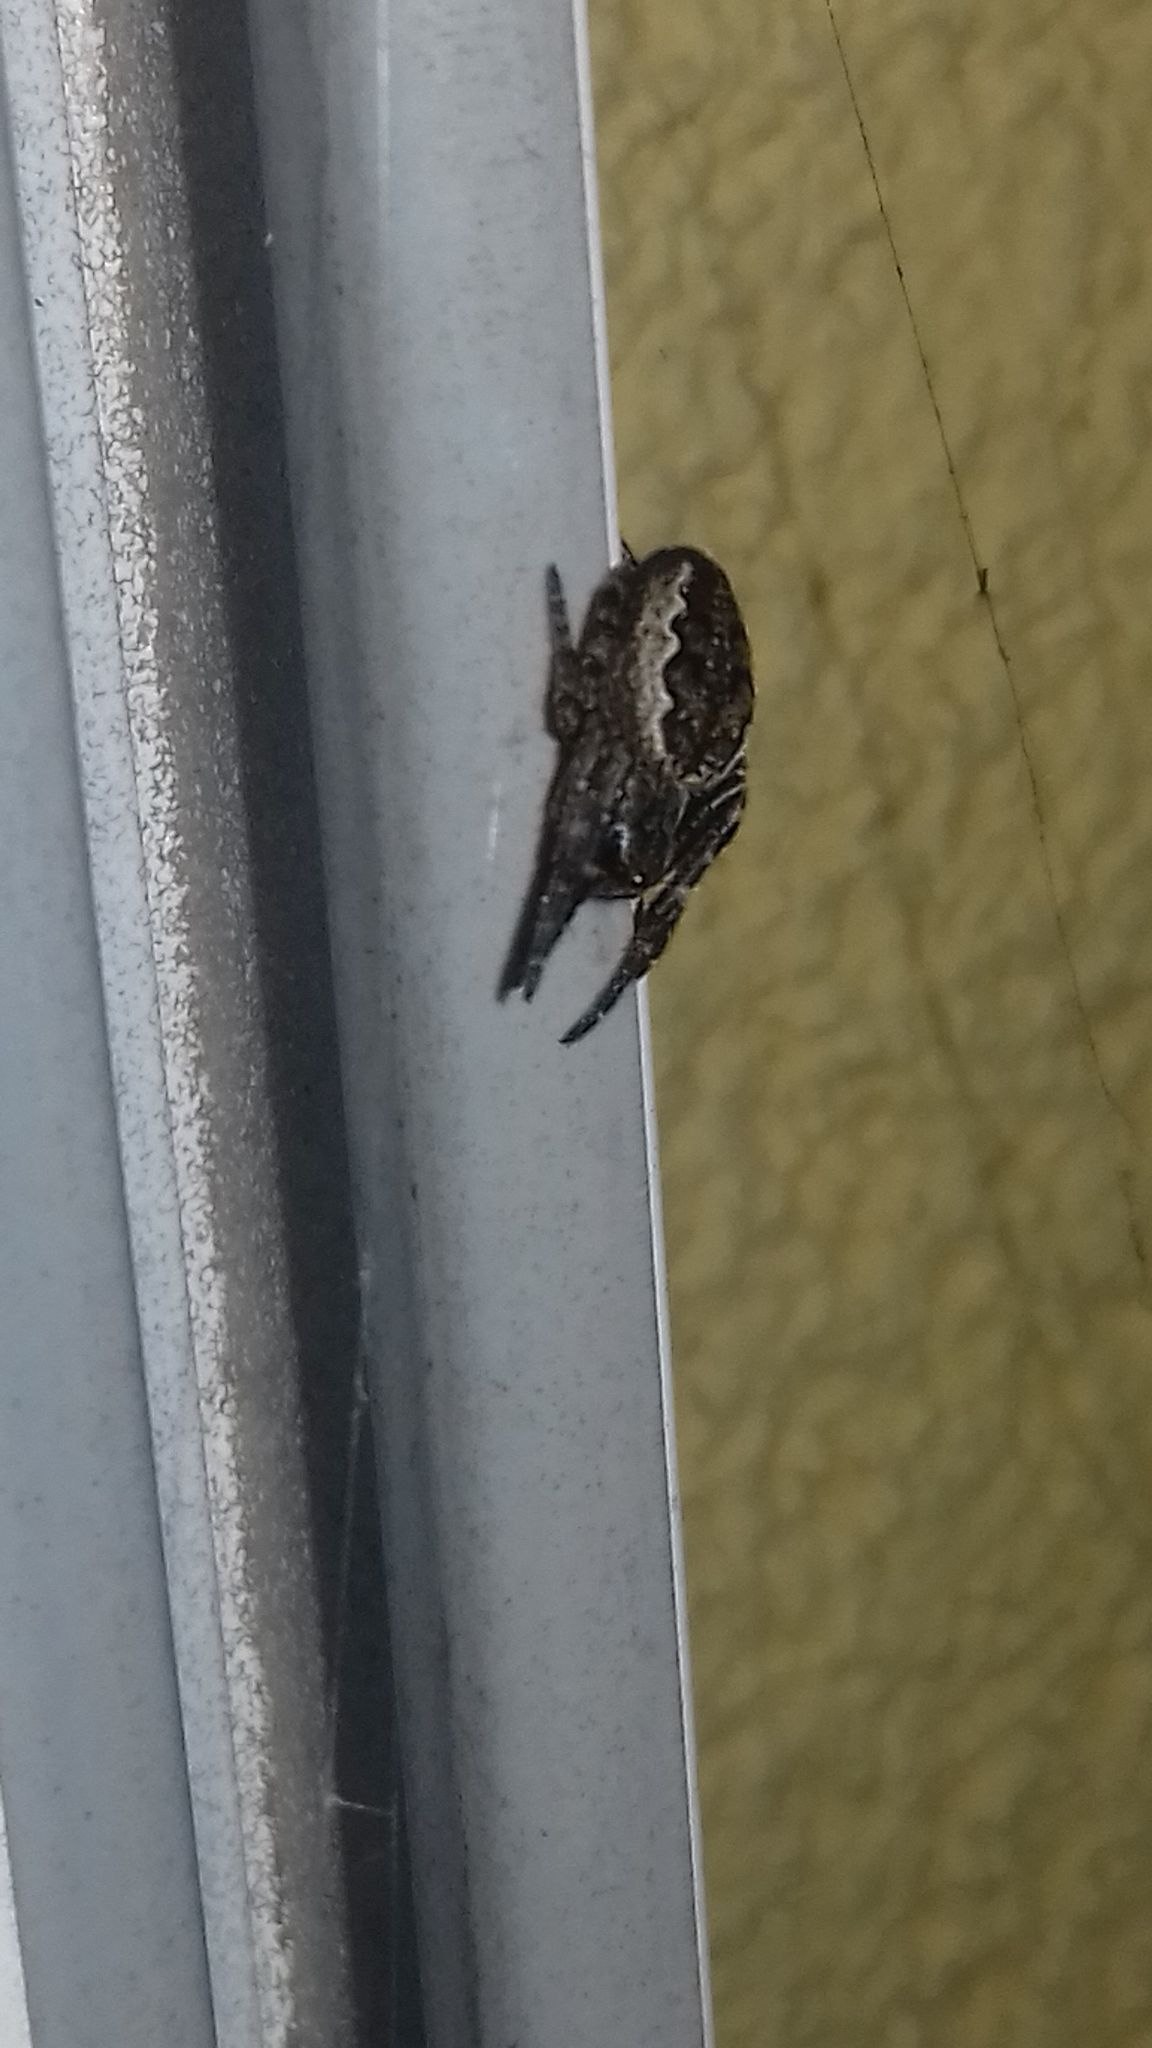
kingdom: Animalia
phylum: Arthropoda
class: Arachnida
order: Araneae
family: Araneidae
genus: Nuctenea
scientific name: Nuctenea umbratica
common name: Toad spider
